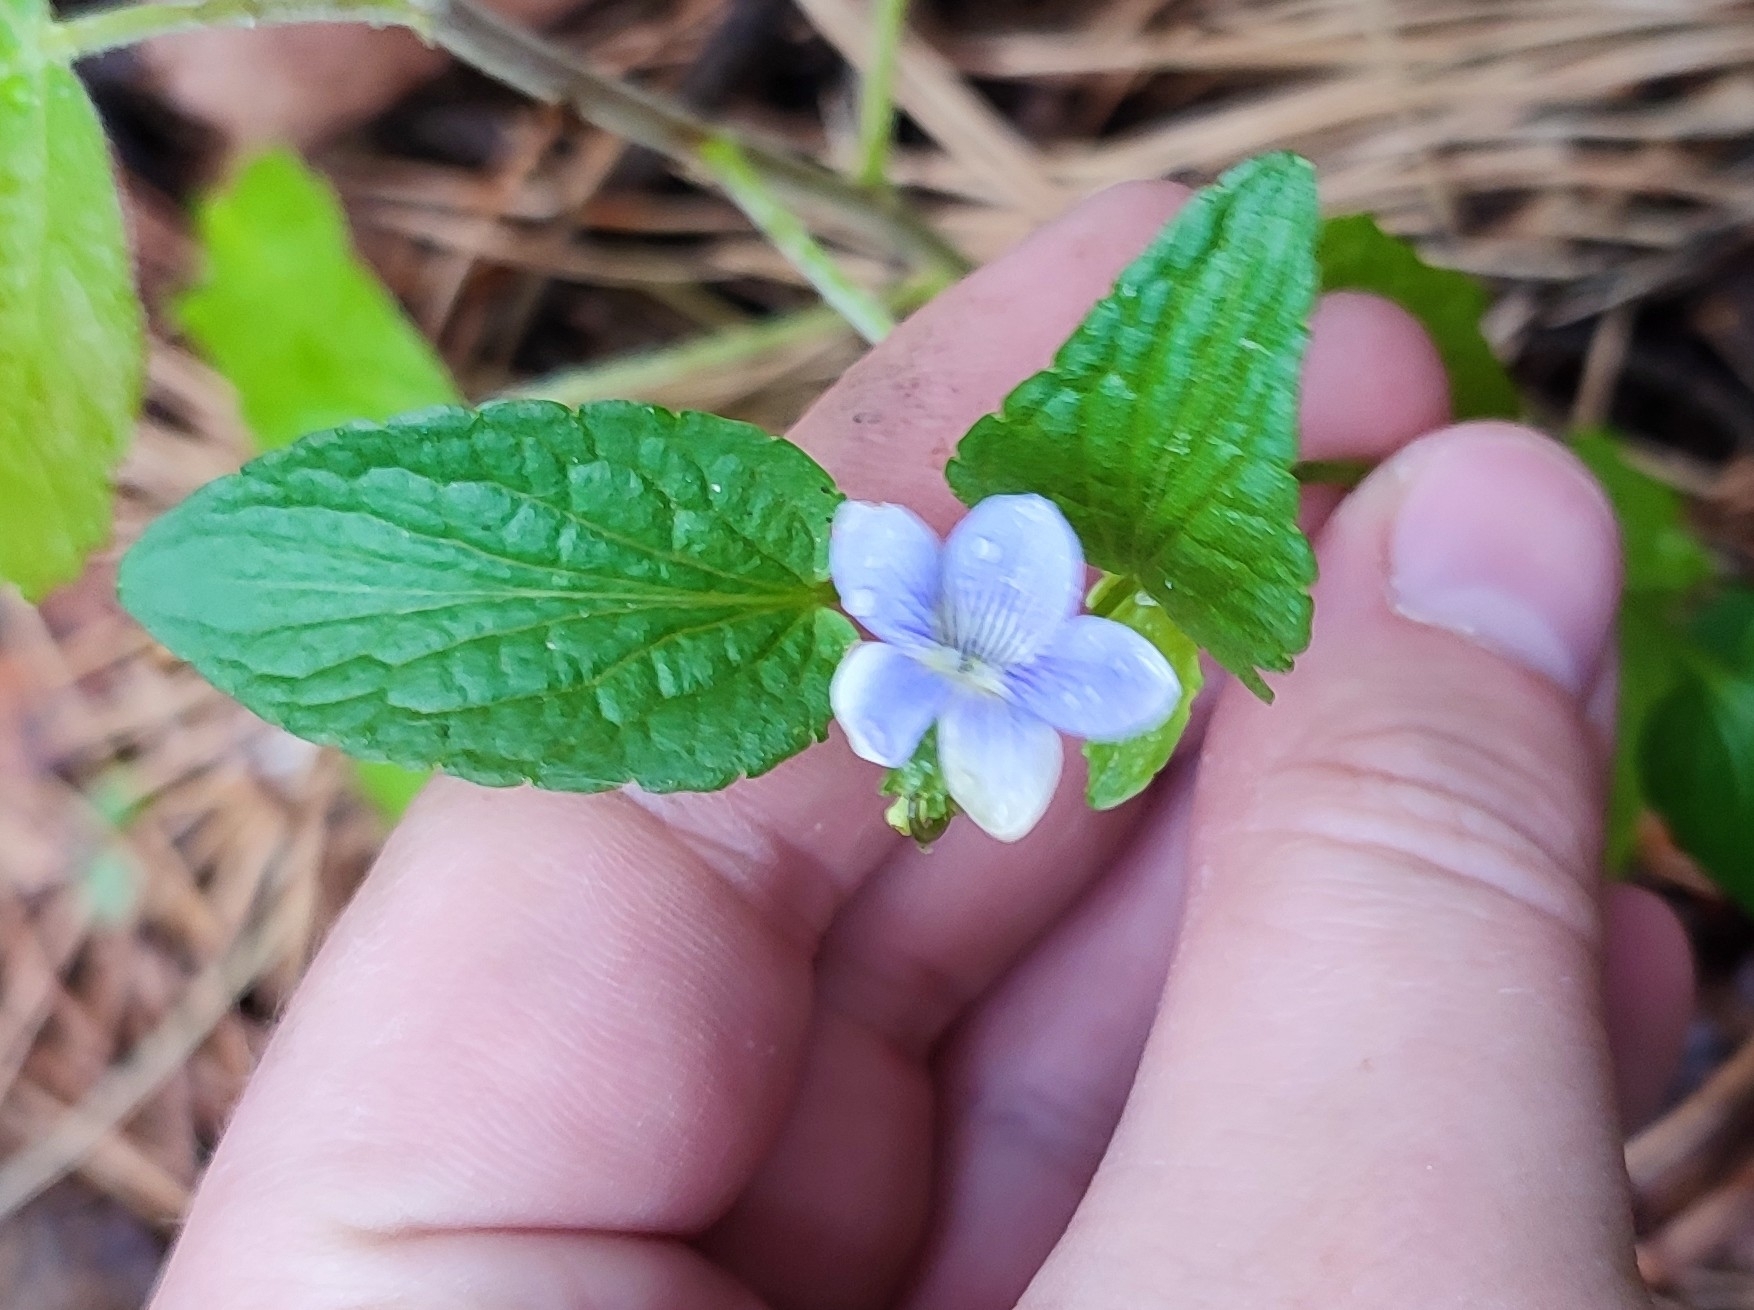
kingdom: Plantae
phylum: Tracheophyta
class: Magnoliopsida
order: Malpighiales
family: Violaceae
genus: Viola
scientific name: Viola
